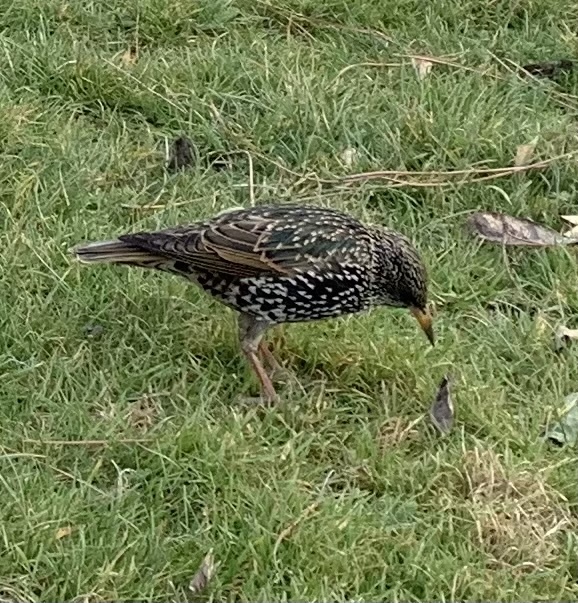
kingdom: Animalia
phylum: Chordata
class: Aves
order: Passeriformes
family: Sturnidae
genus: Sturnus
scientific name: Sturnus vulgaris
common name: Common starling
